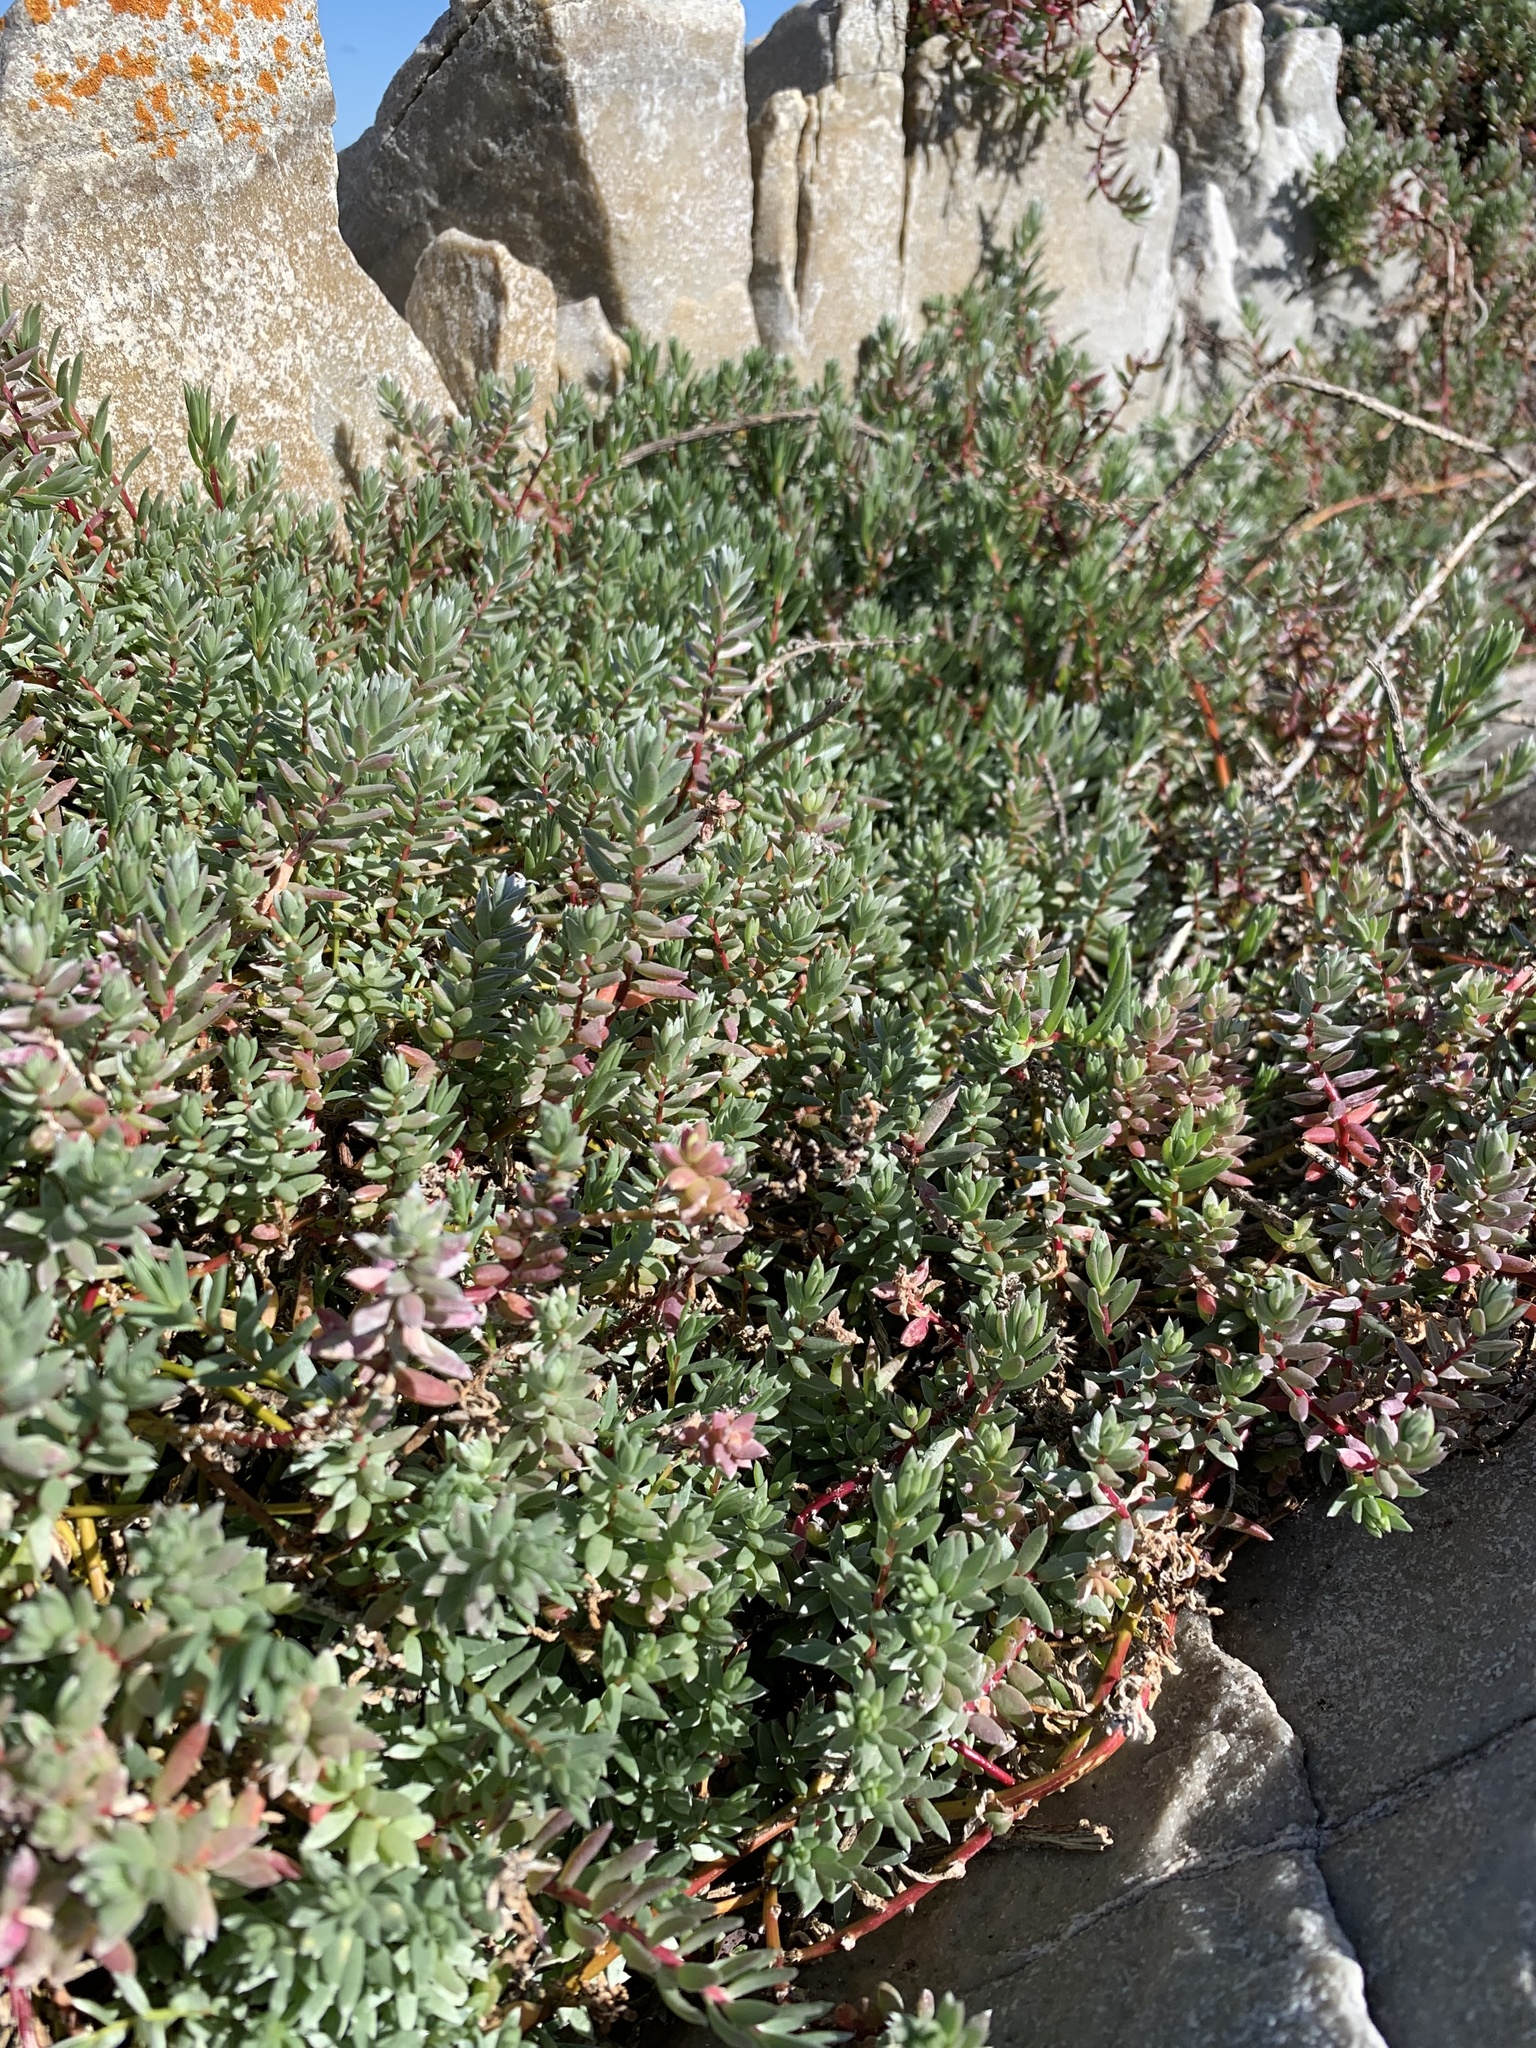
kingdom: Plantae
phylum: Tracheophyta
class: Magnoliopsida
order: Caryophyllales
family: Amaranthaceae
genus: Chenolea
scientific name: Chenolea diffusa
